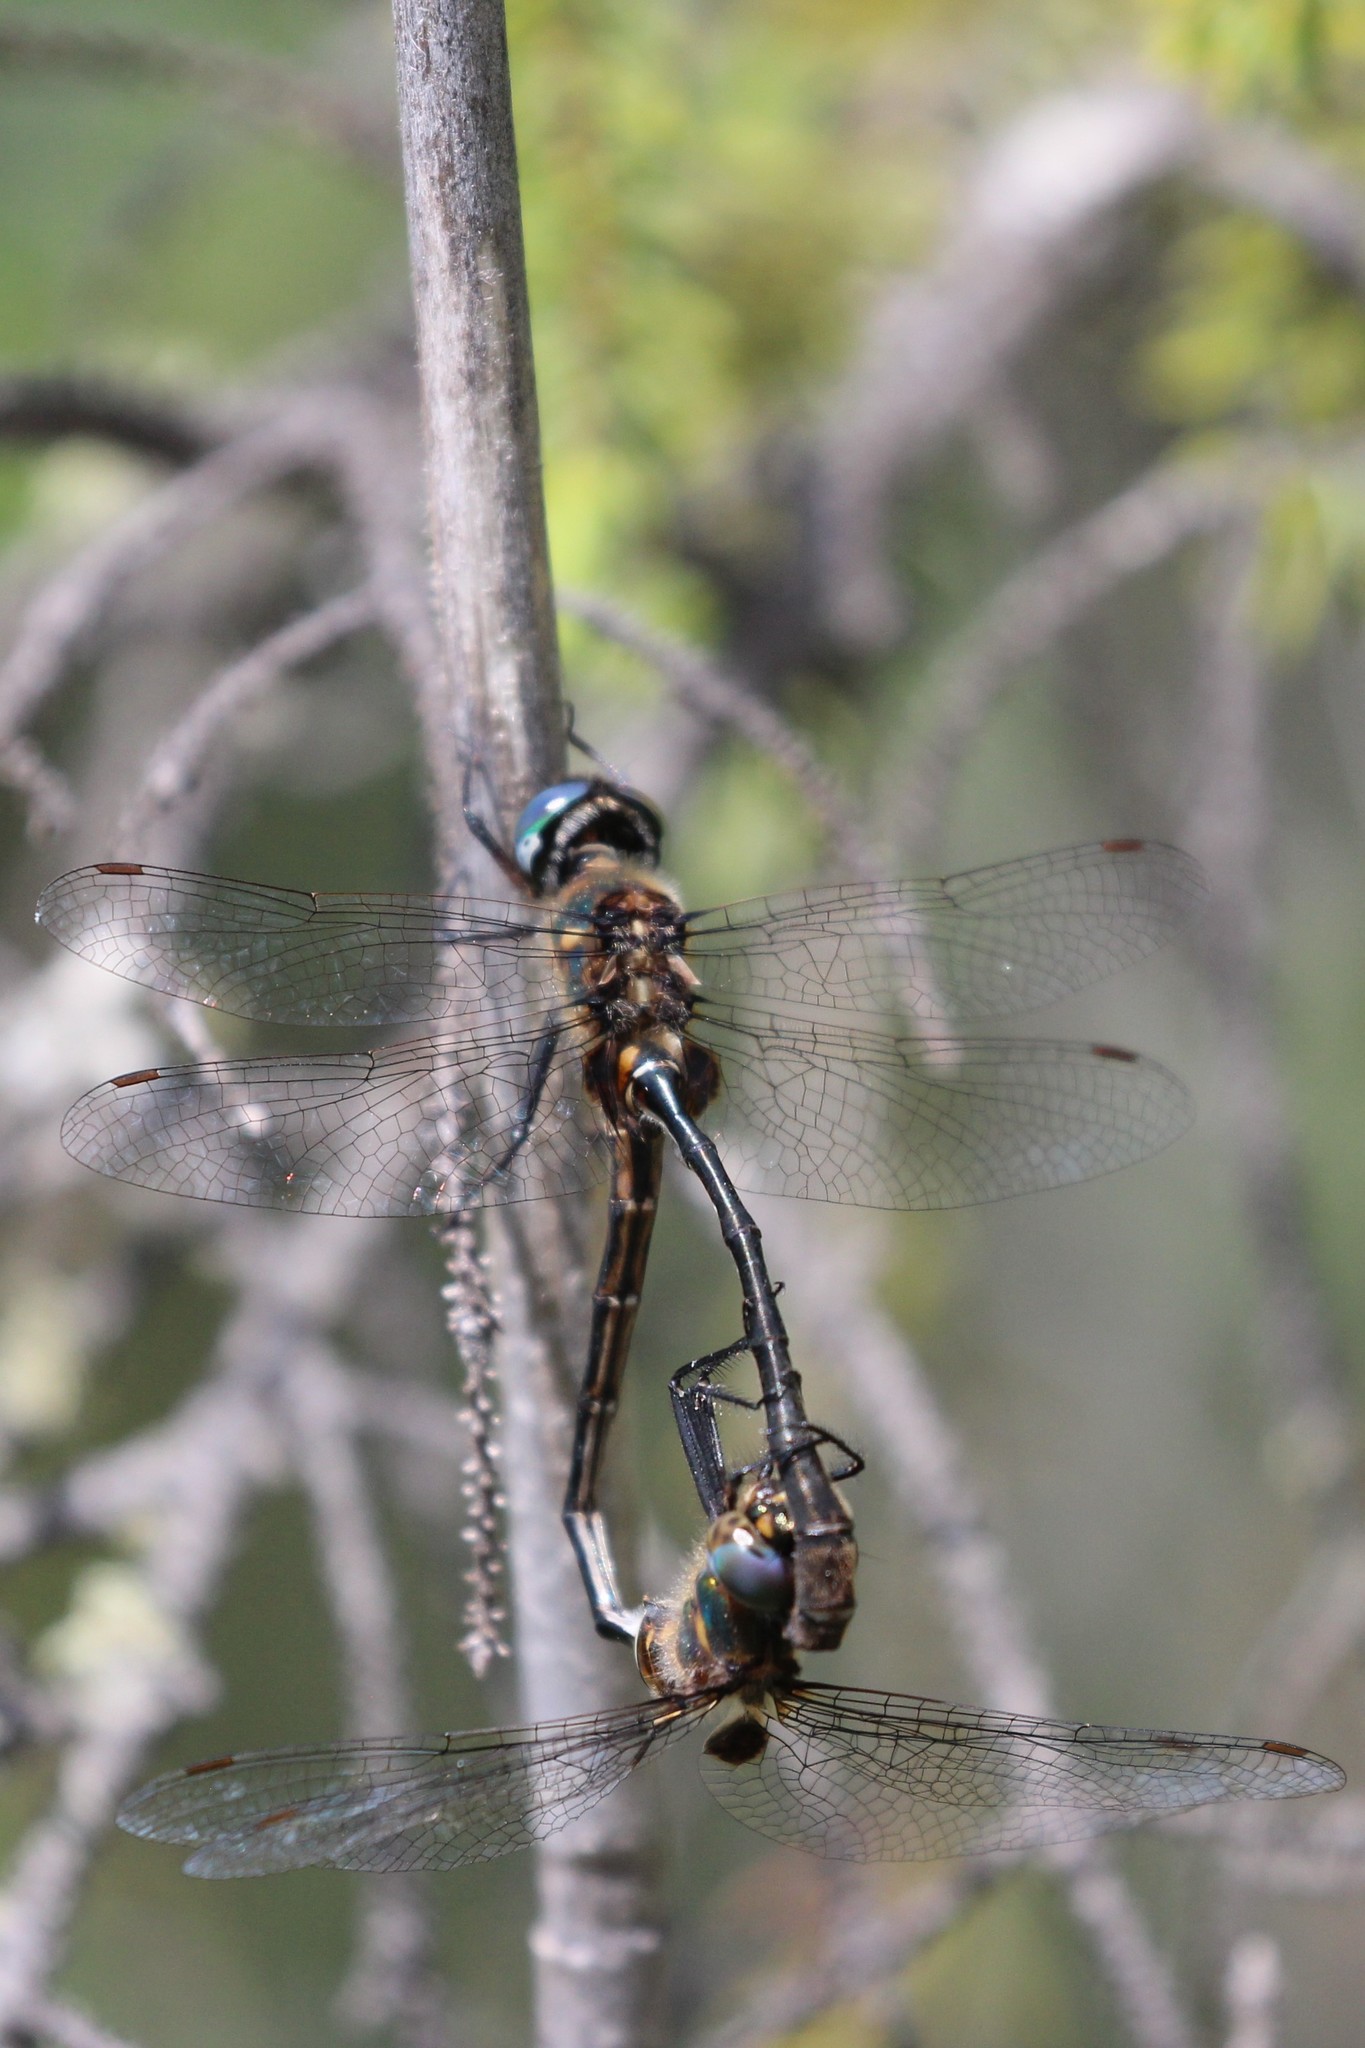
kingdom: Animalia
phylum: Arthropoda
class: Insecta
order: Odonata
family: Corduliidae
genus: Somatochlora
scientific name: Somatochlora franklini
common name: Delicate emerald
